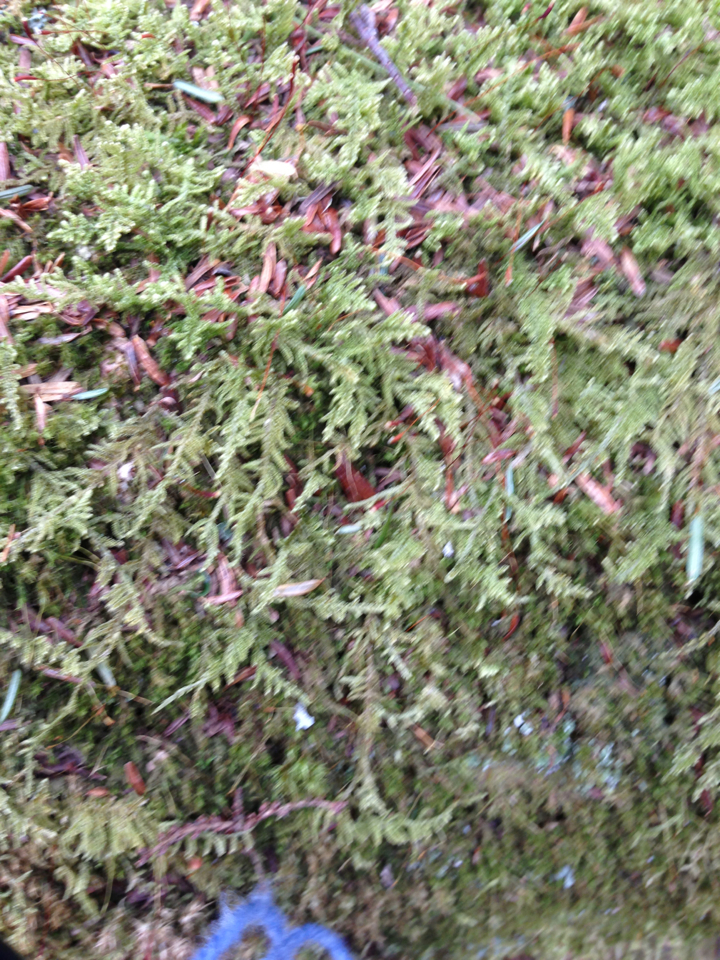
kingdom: Plantae
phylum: Bryophyta
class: Bryopsida
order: Hypnales
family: Callicladiaceae
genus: Callicladium
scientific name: Callicladium imponens
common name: Brocade moss
